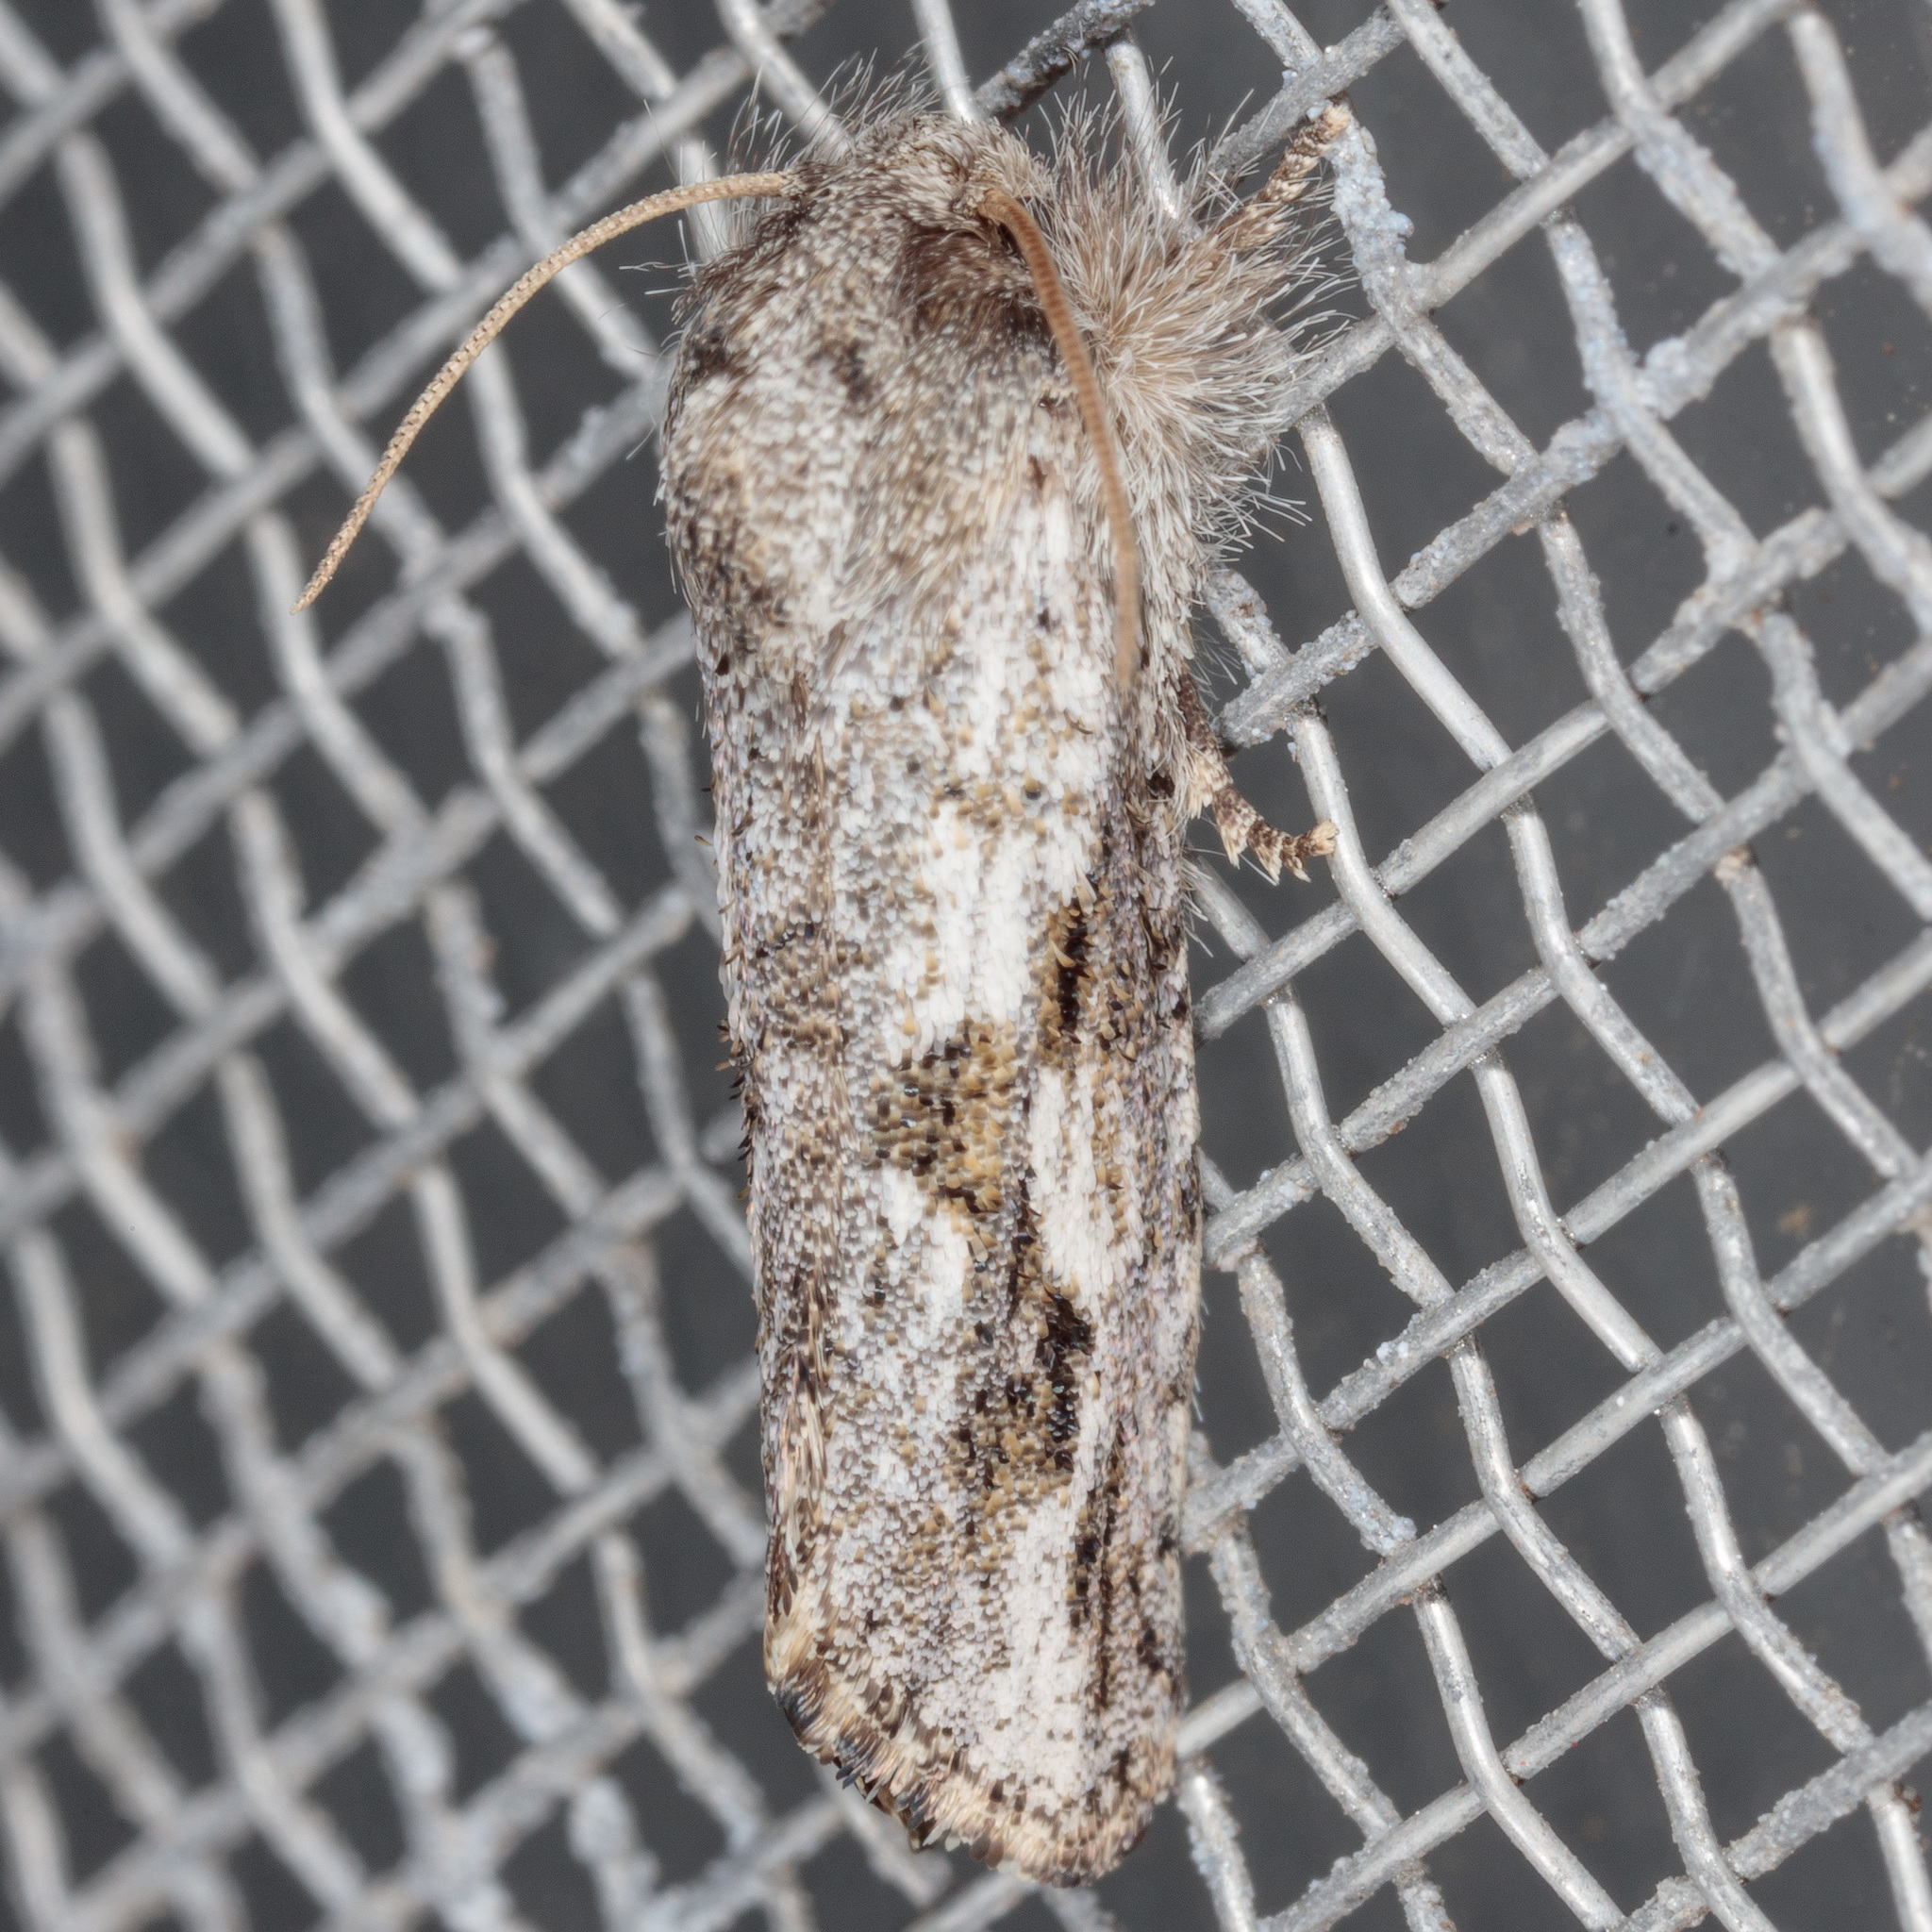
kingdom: Animalia
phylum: Arthropoda
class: Insecta
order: Lepidoptera
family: Tineidae
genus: Acrolophus
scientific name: Acrolophus griseus
